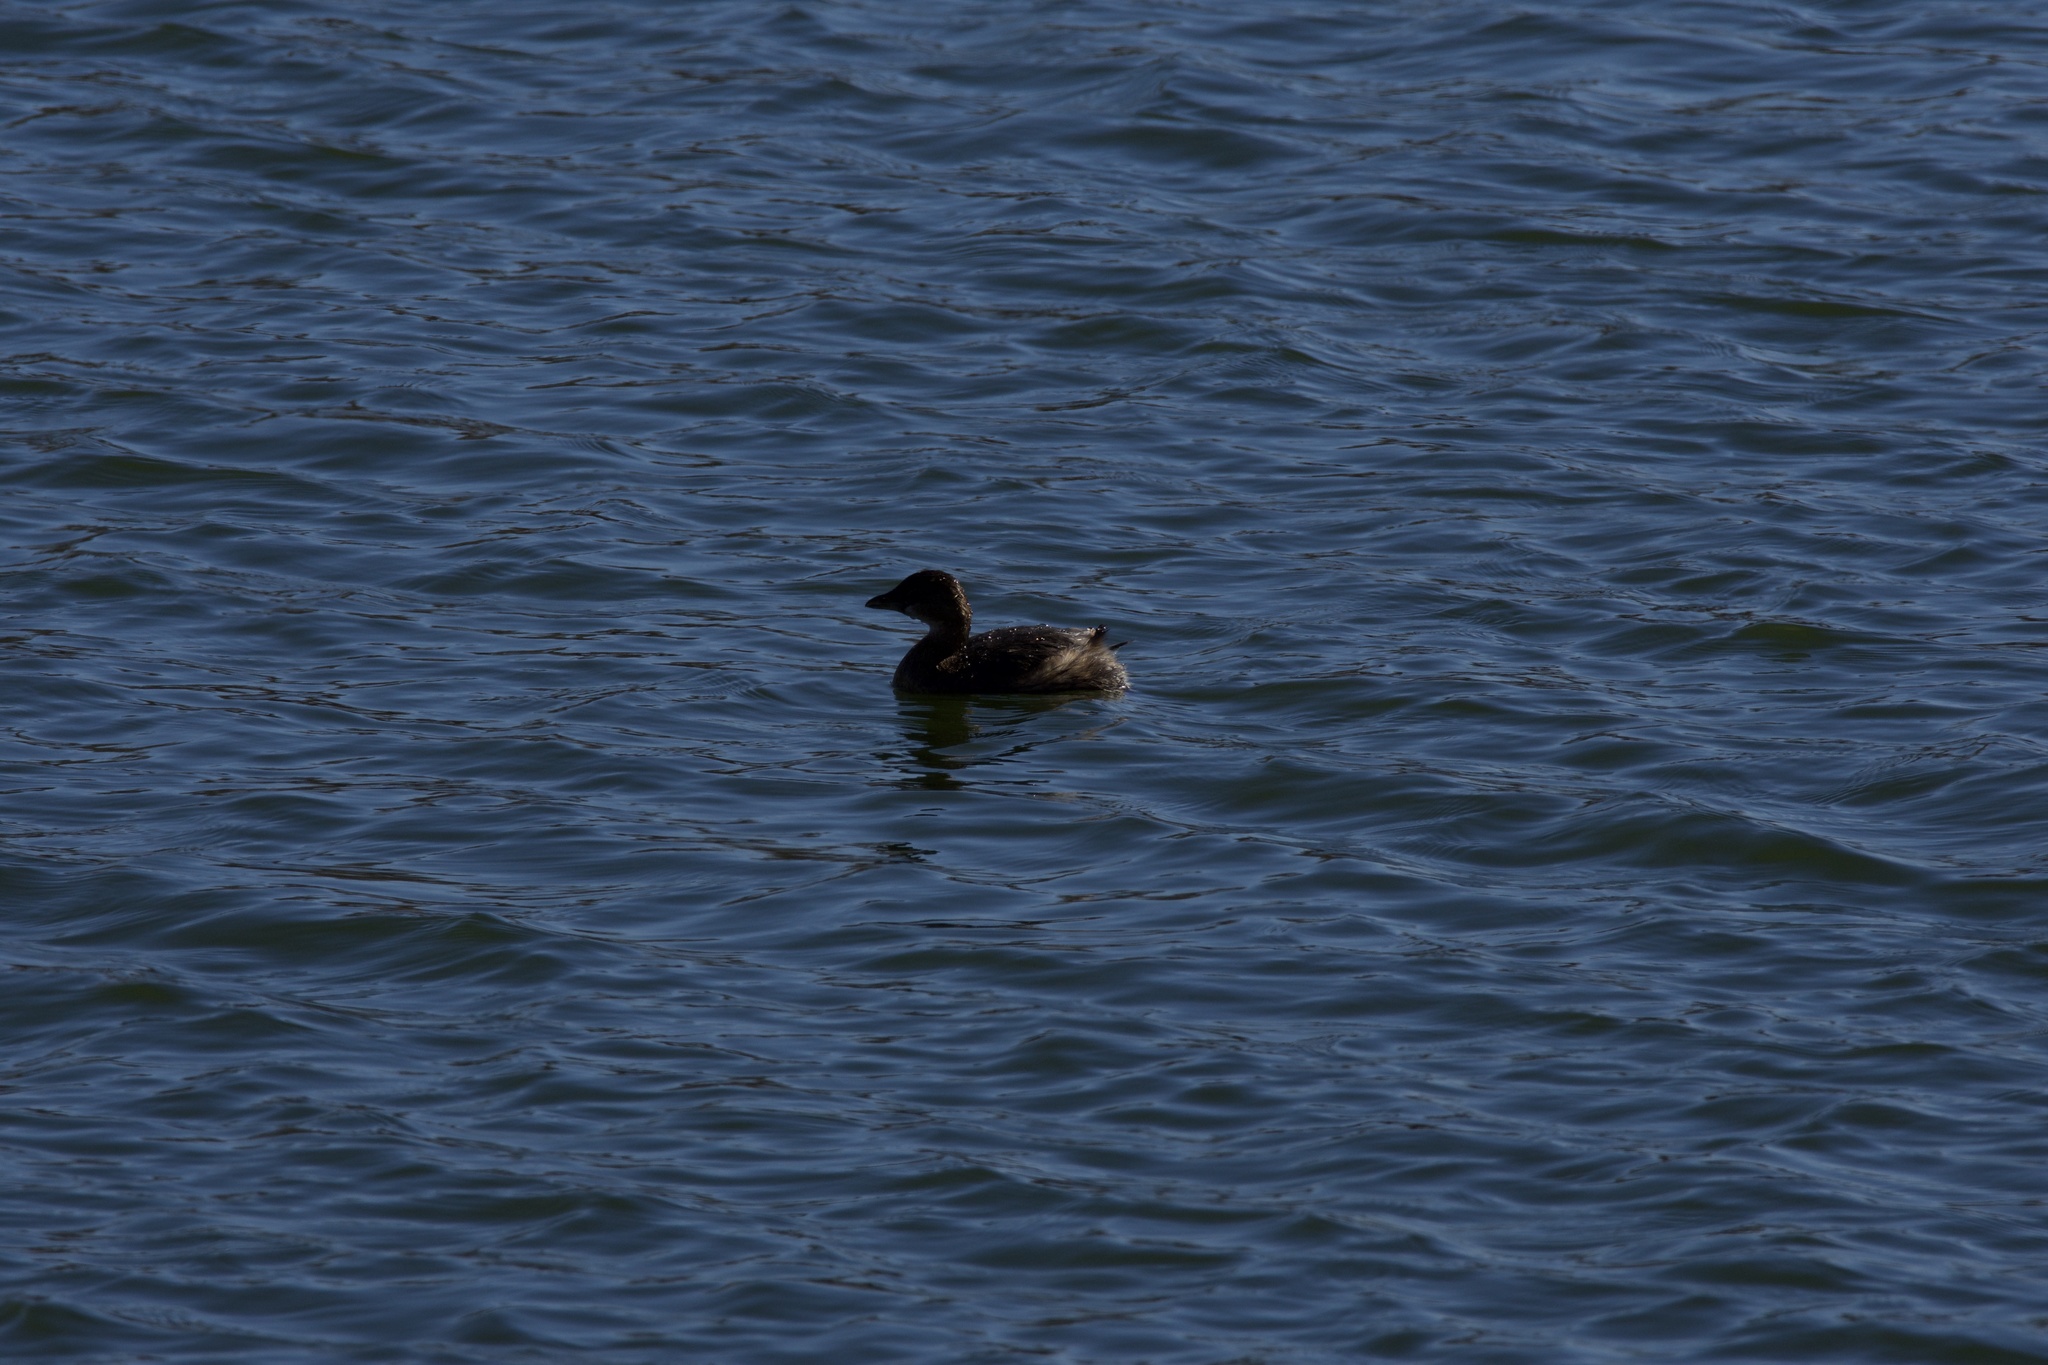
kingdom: Animalia
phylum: Chordata
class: Aves
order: Podicipediformes
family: Podicipedidae
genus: Podilymbus
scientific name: Podilymbus podiceps
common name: Pied-billed grebe
